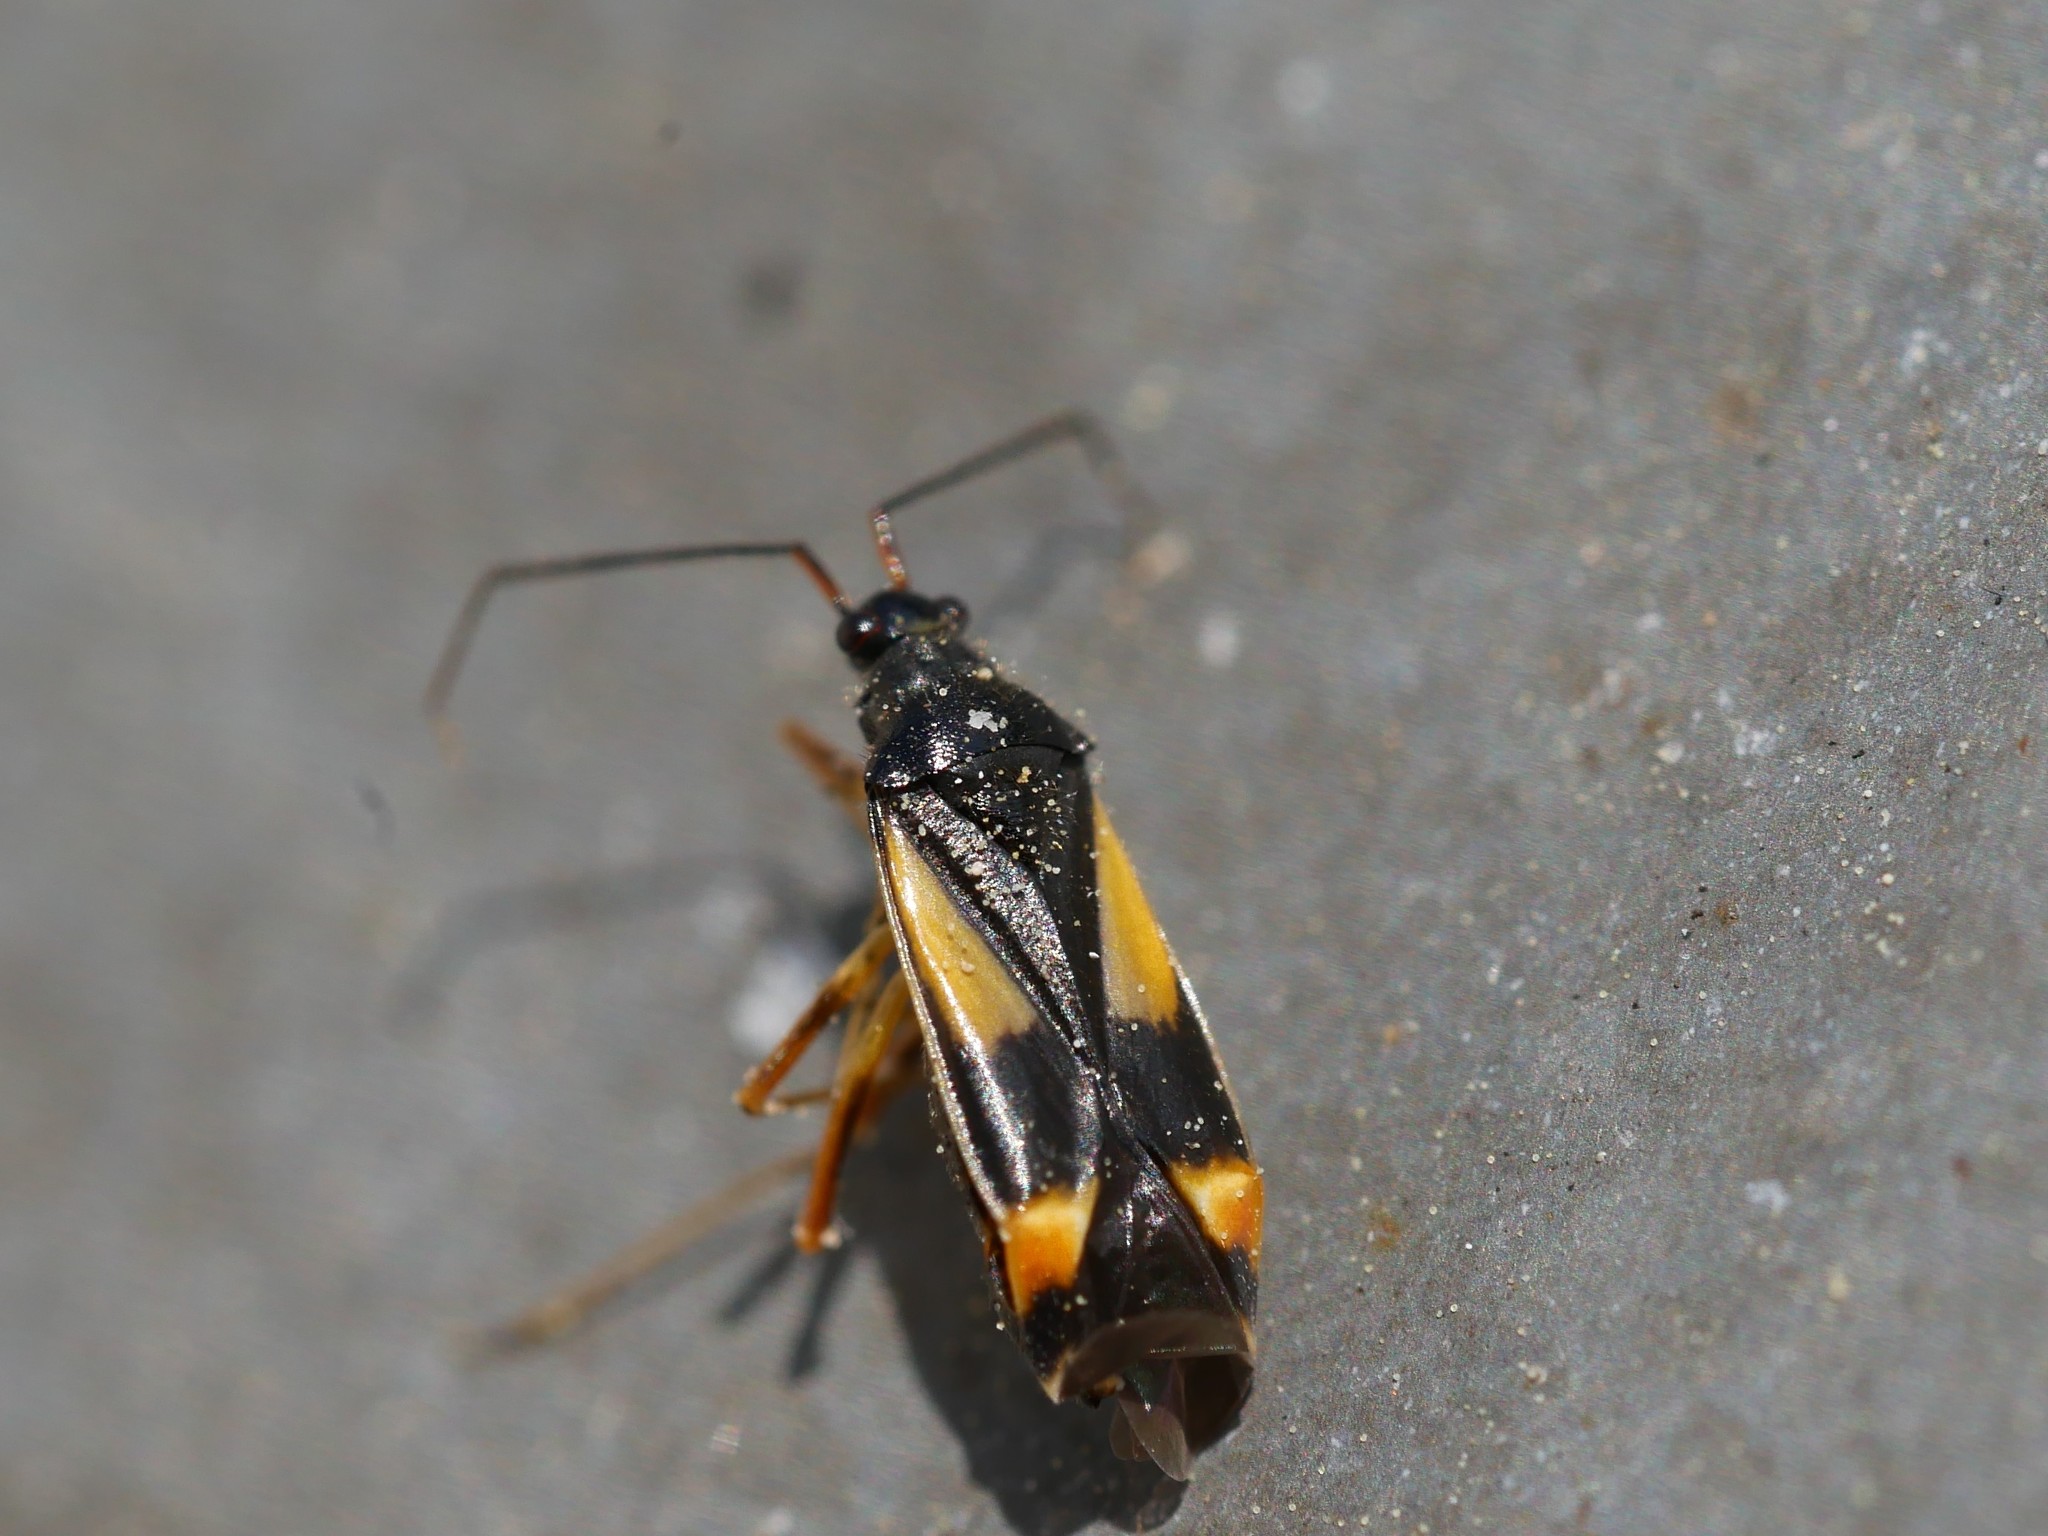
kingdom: Animalia
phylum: Arthropoda
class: Insecta
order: Hemiptera
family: Miridae
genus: Dryophilocoris
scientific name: Dryophilocoris flavoquadrimaculatus
